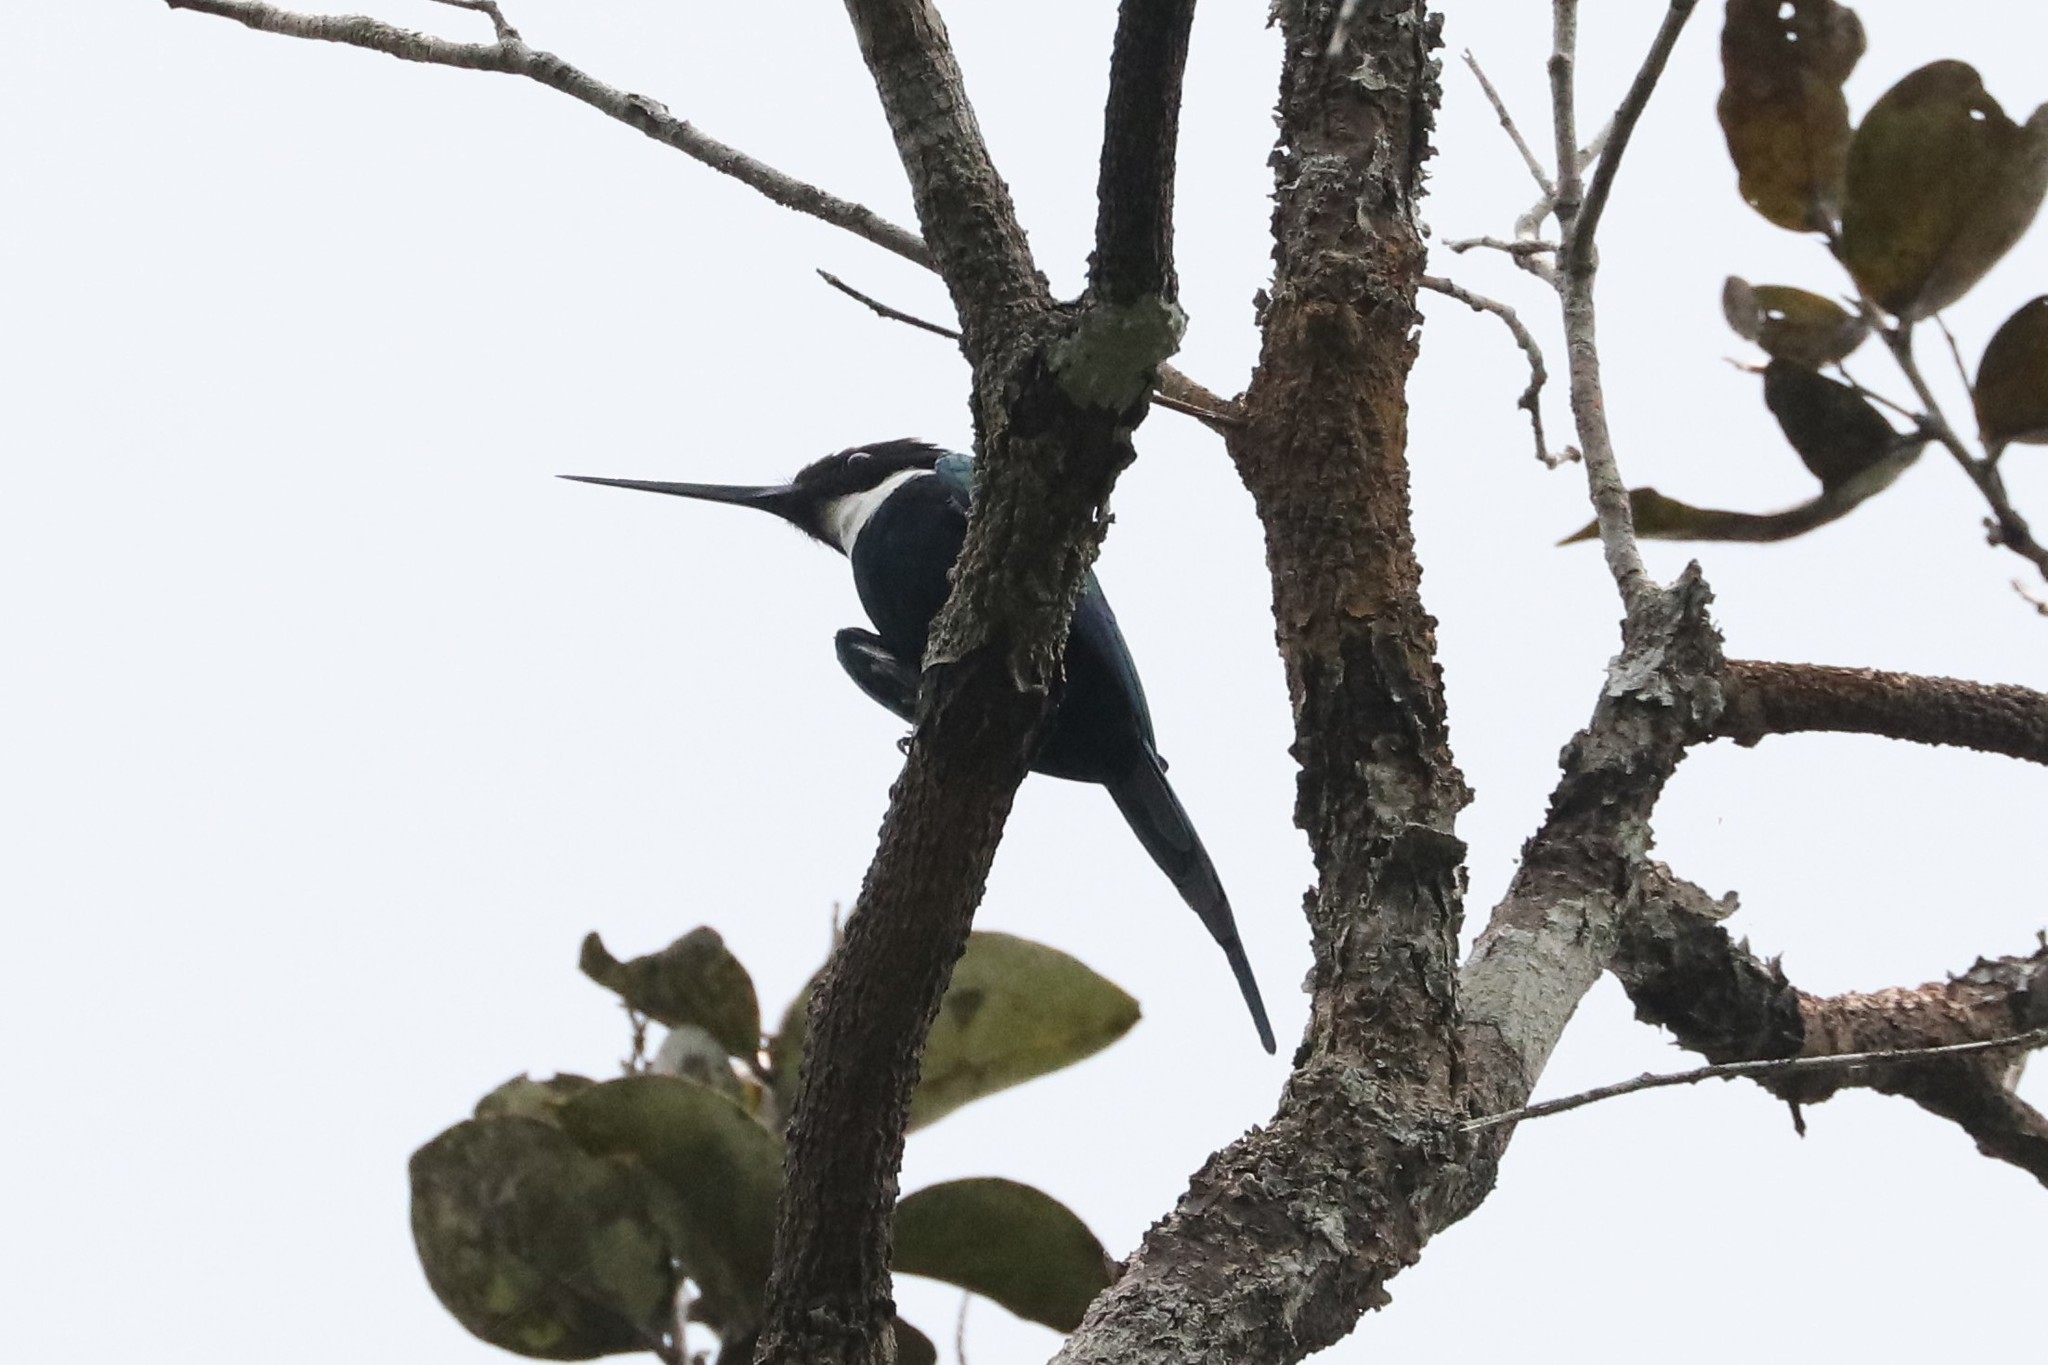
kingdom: Animalia
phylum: Chordata
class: Aves
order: Piciformes
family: Galbulidae
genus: Galbula
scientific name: Galbula dea
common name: Paradise jacamar
